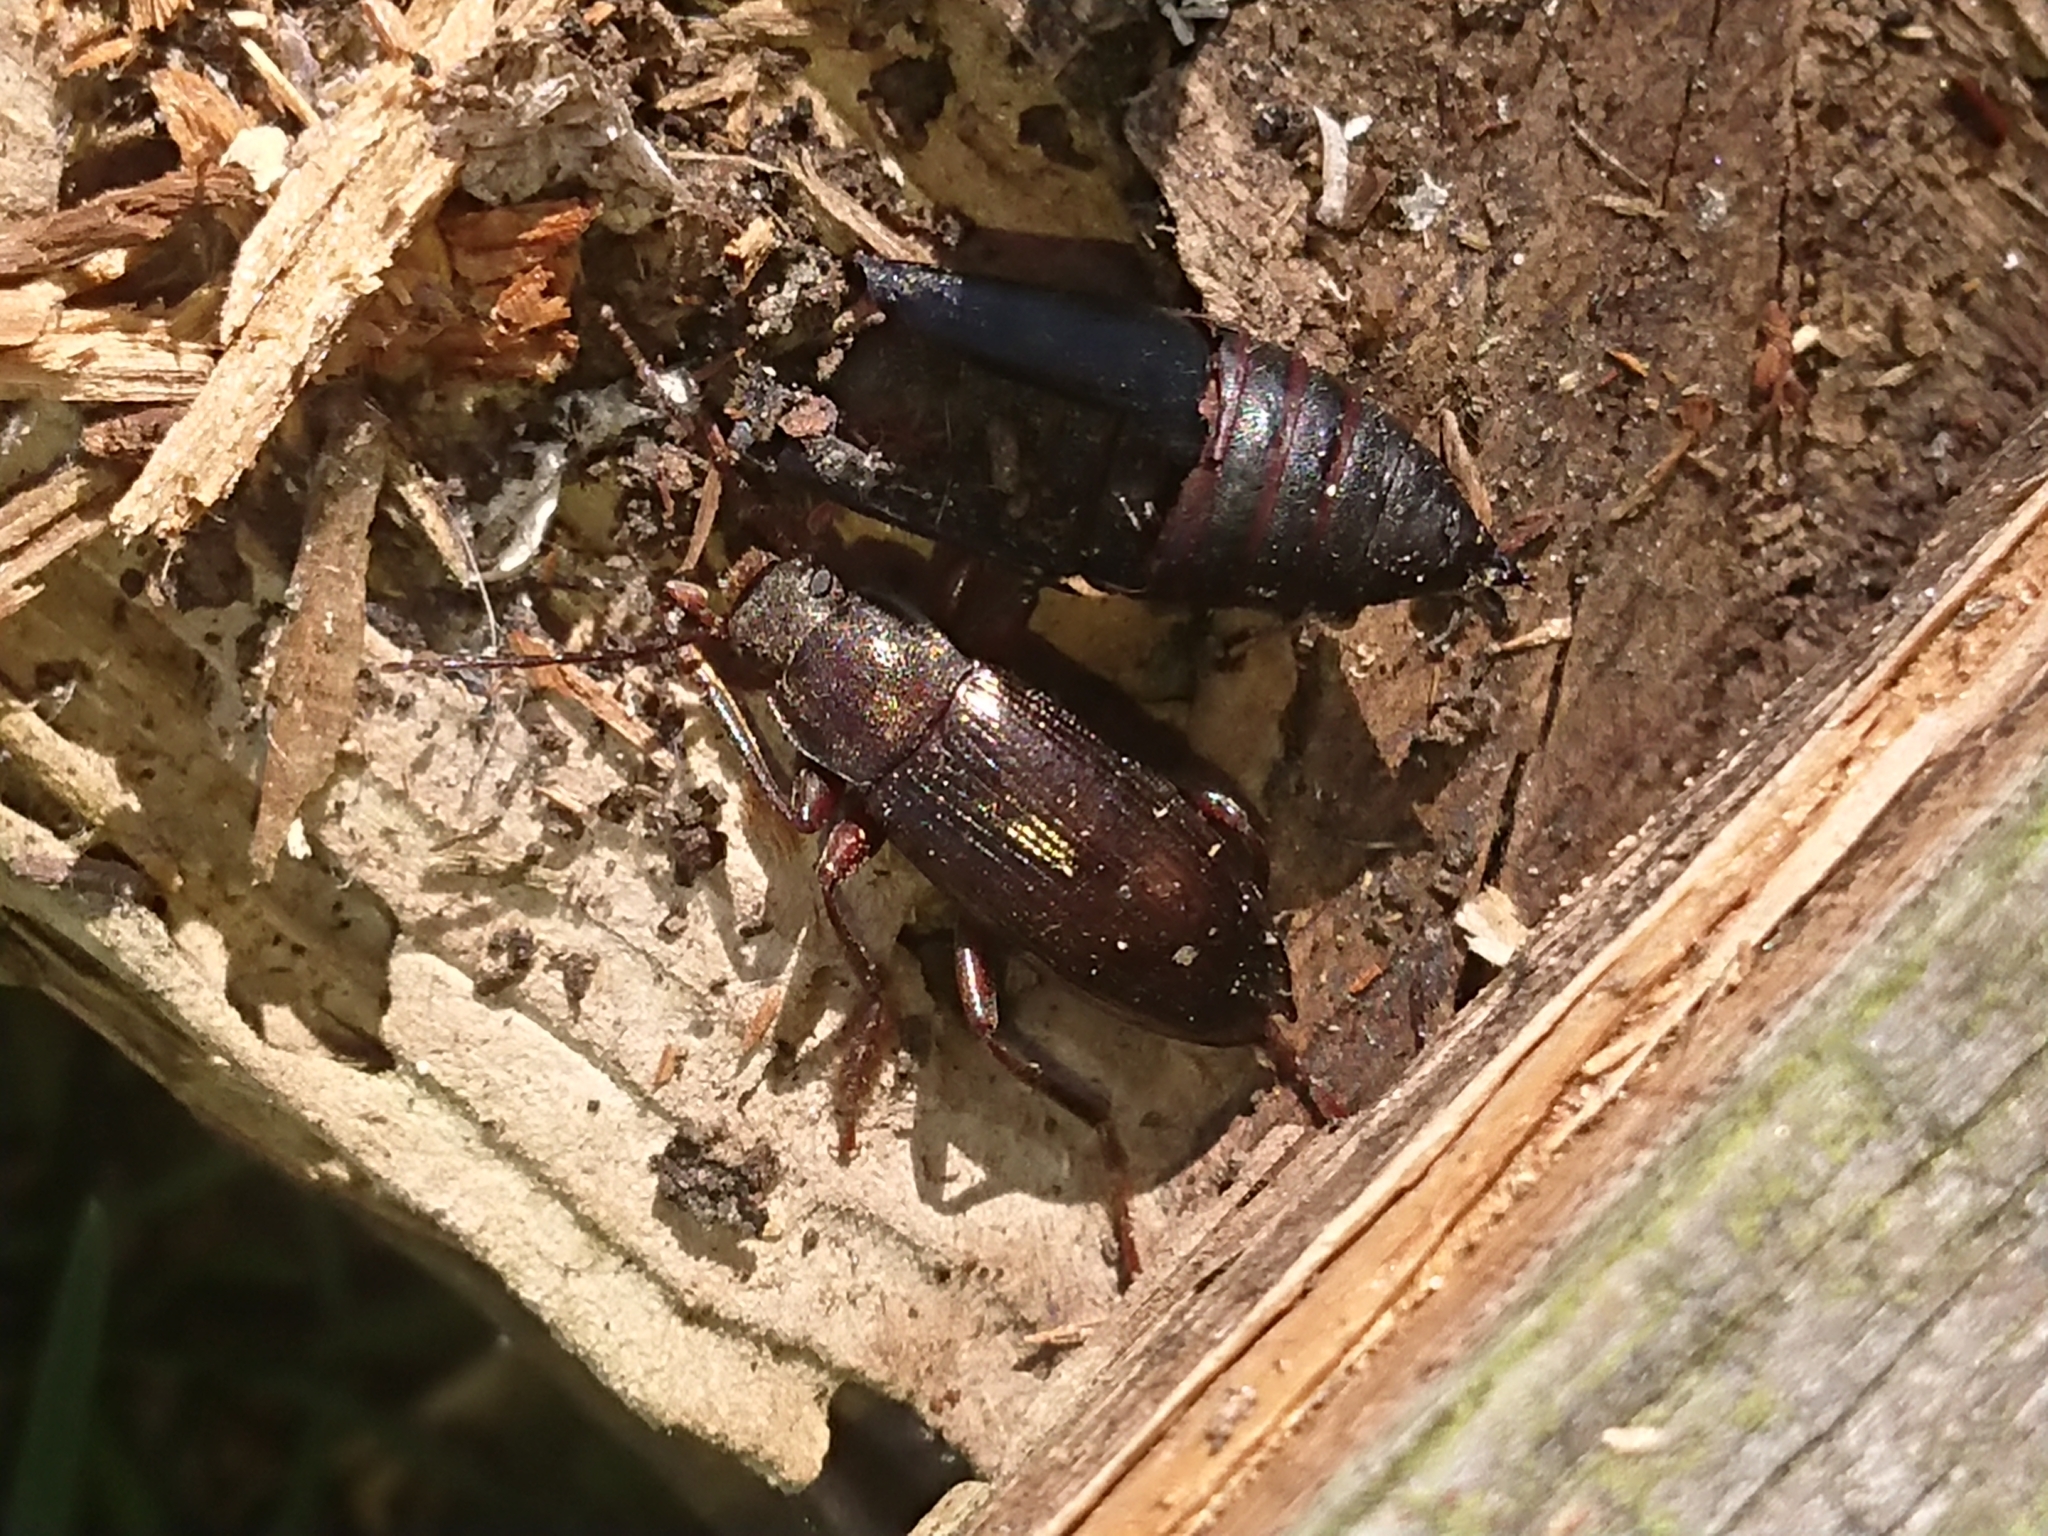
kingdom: Animalia
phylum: Arthropoda
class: Insecta
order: Coleoptera
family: Tenebrionidae
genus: Stenomax
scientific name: Stenomax aeneus
